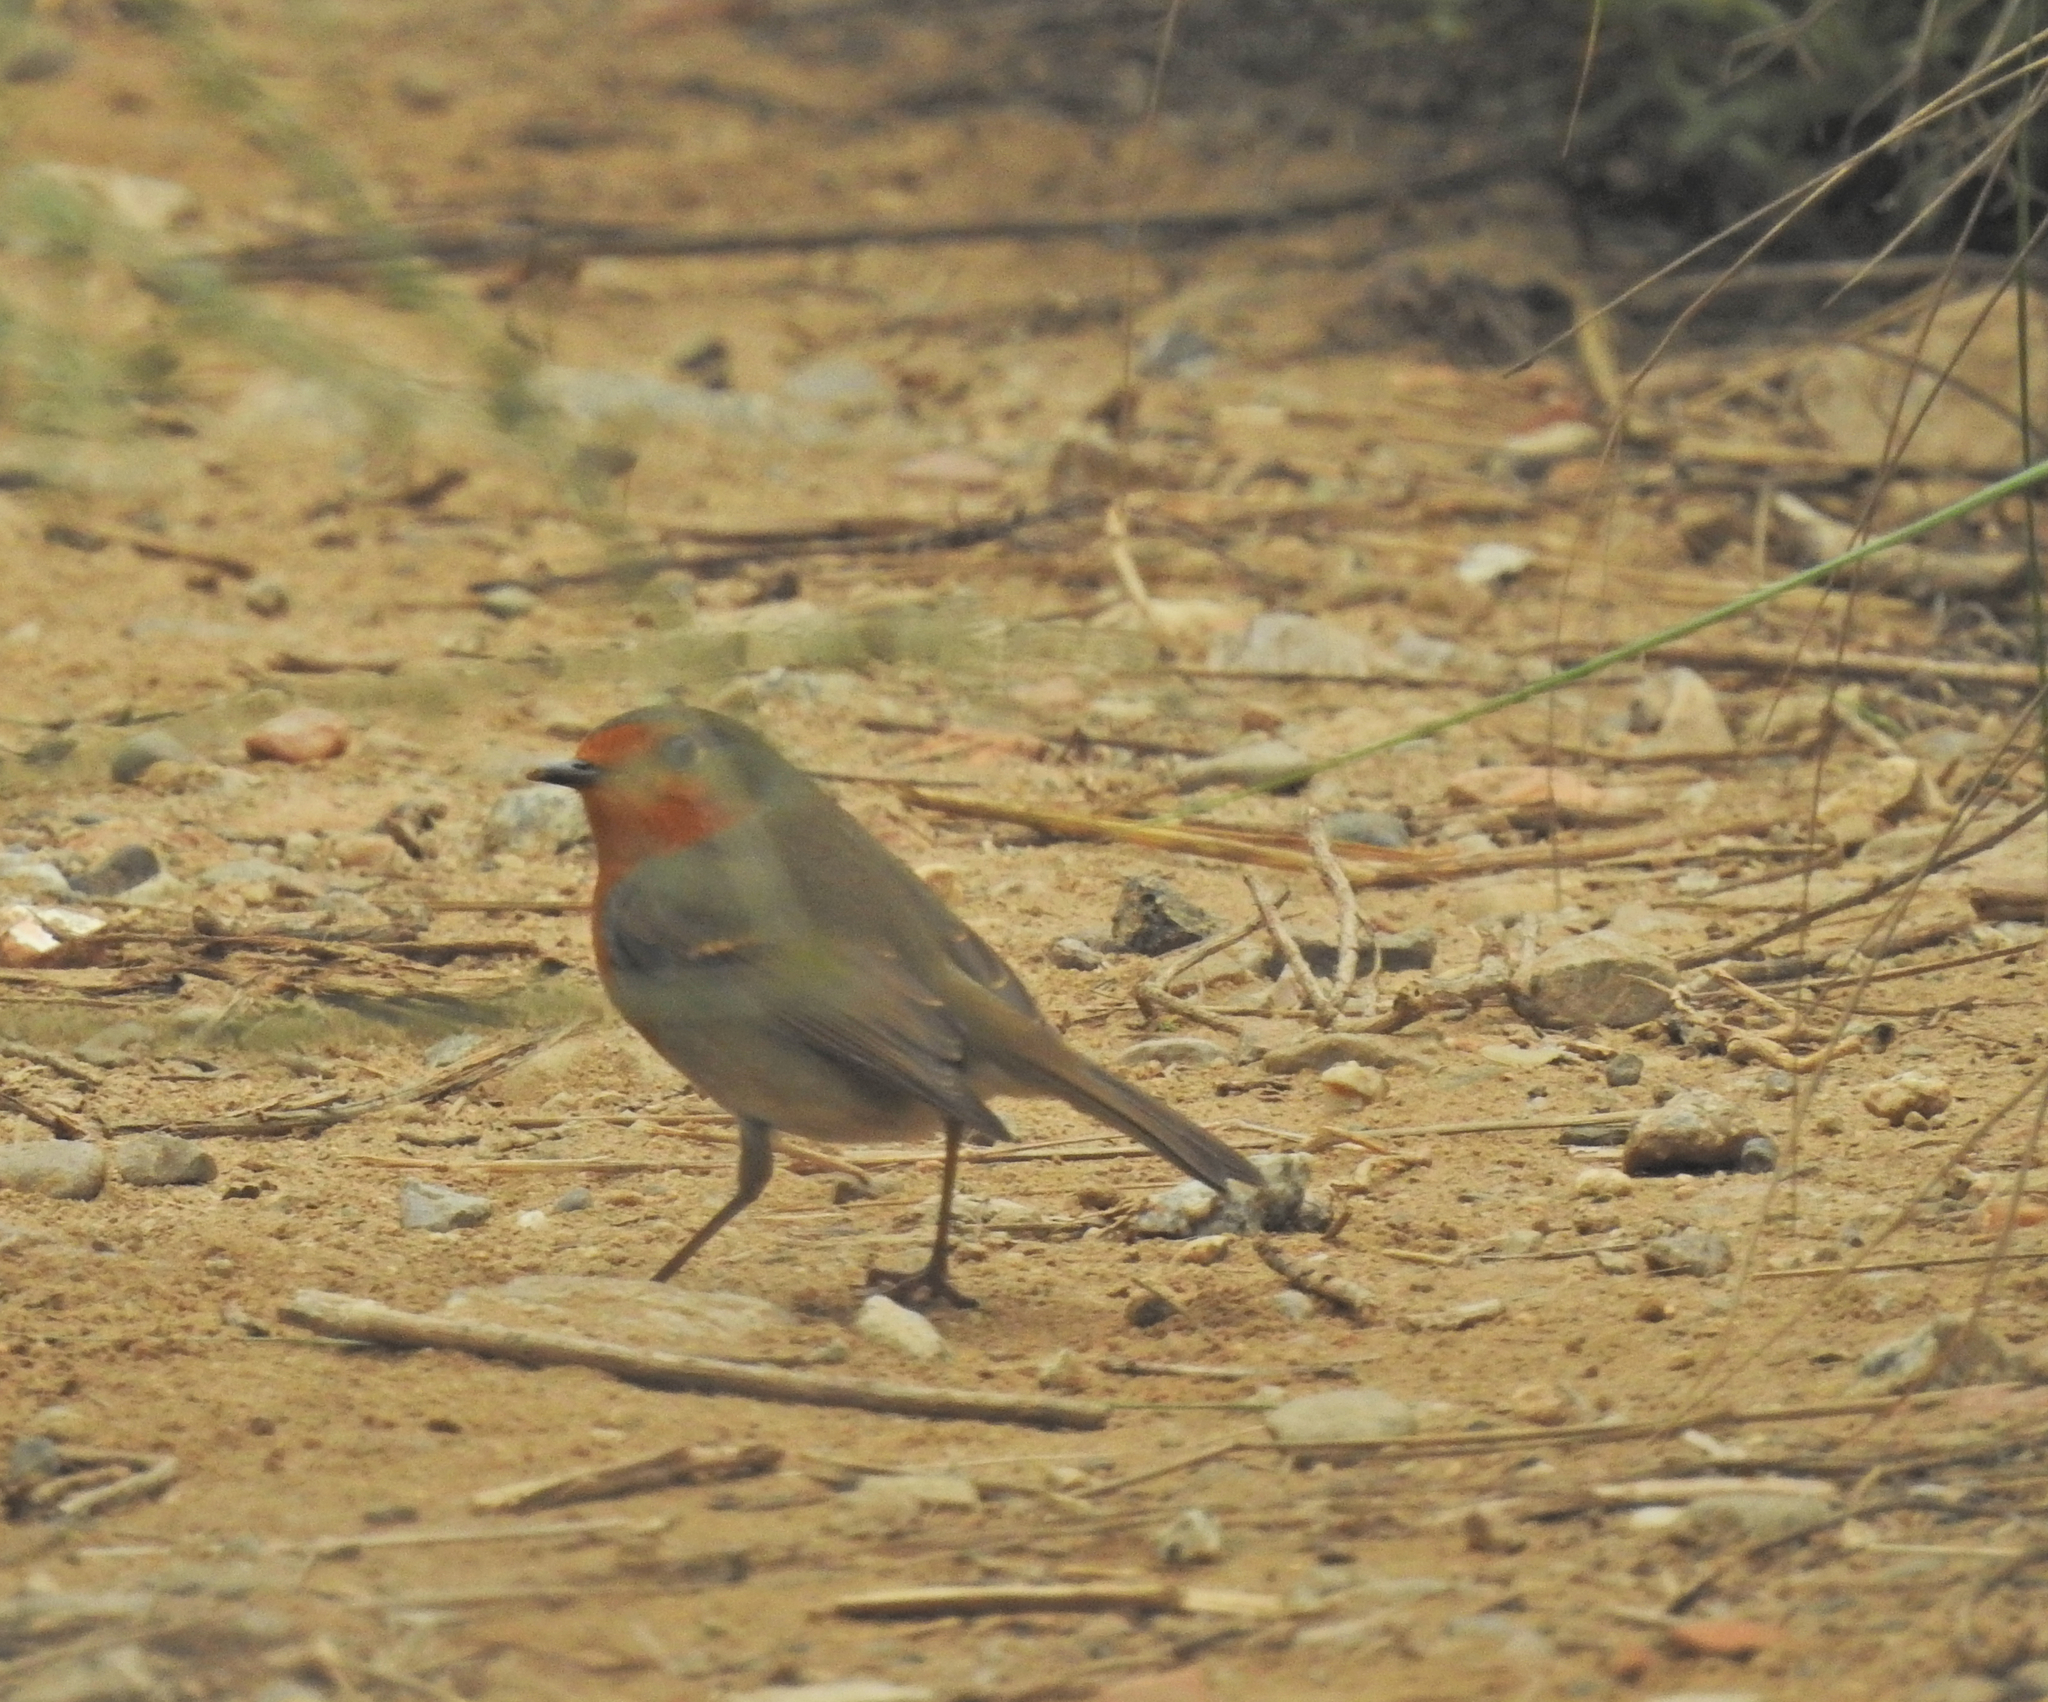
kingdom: Animalia
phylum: Chordata
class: Aves
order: Passeriformes
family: Muscicapidae
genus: Erithacus
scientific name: Erithacus rubecula
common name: European robin
